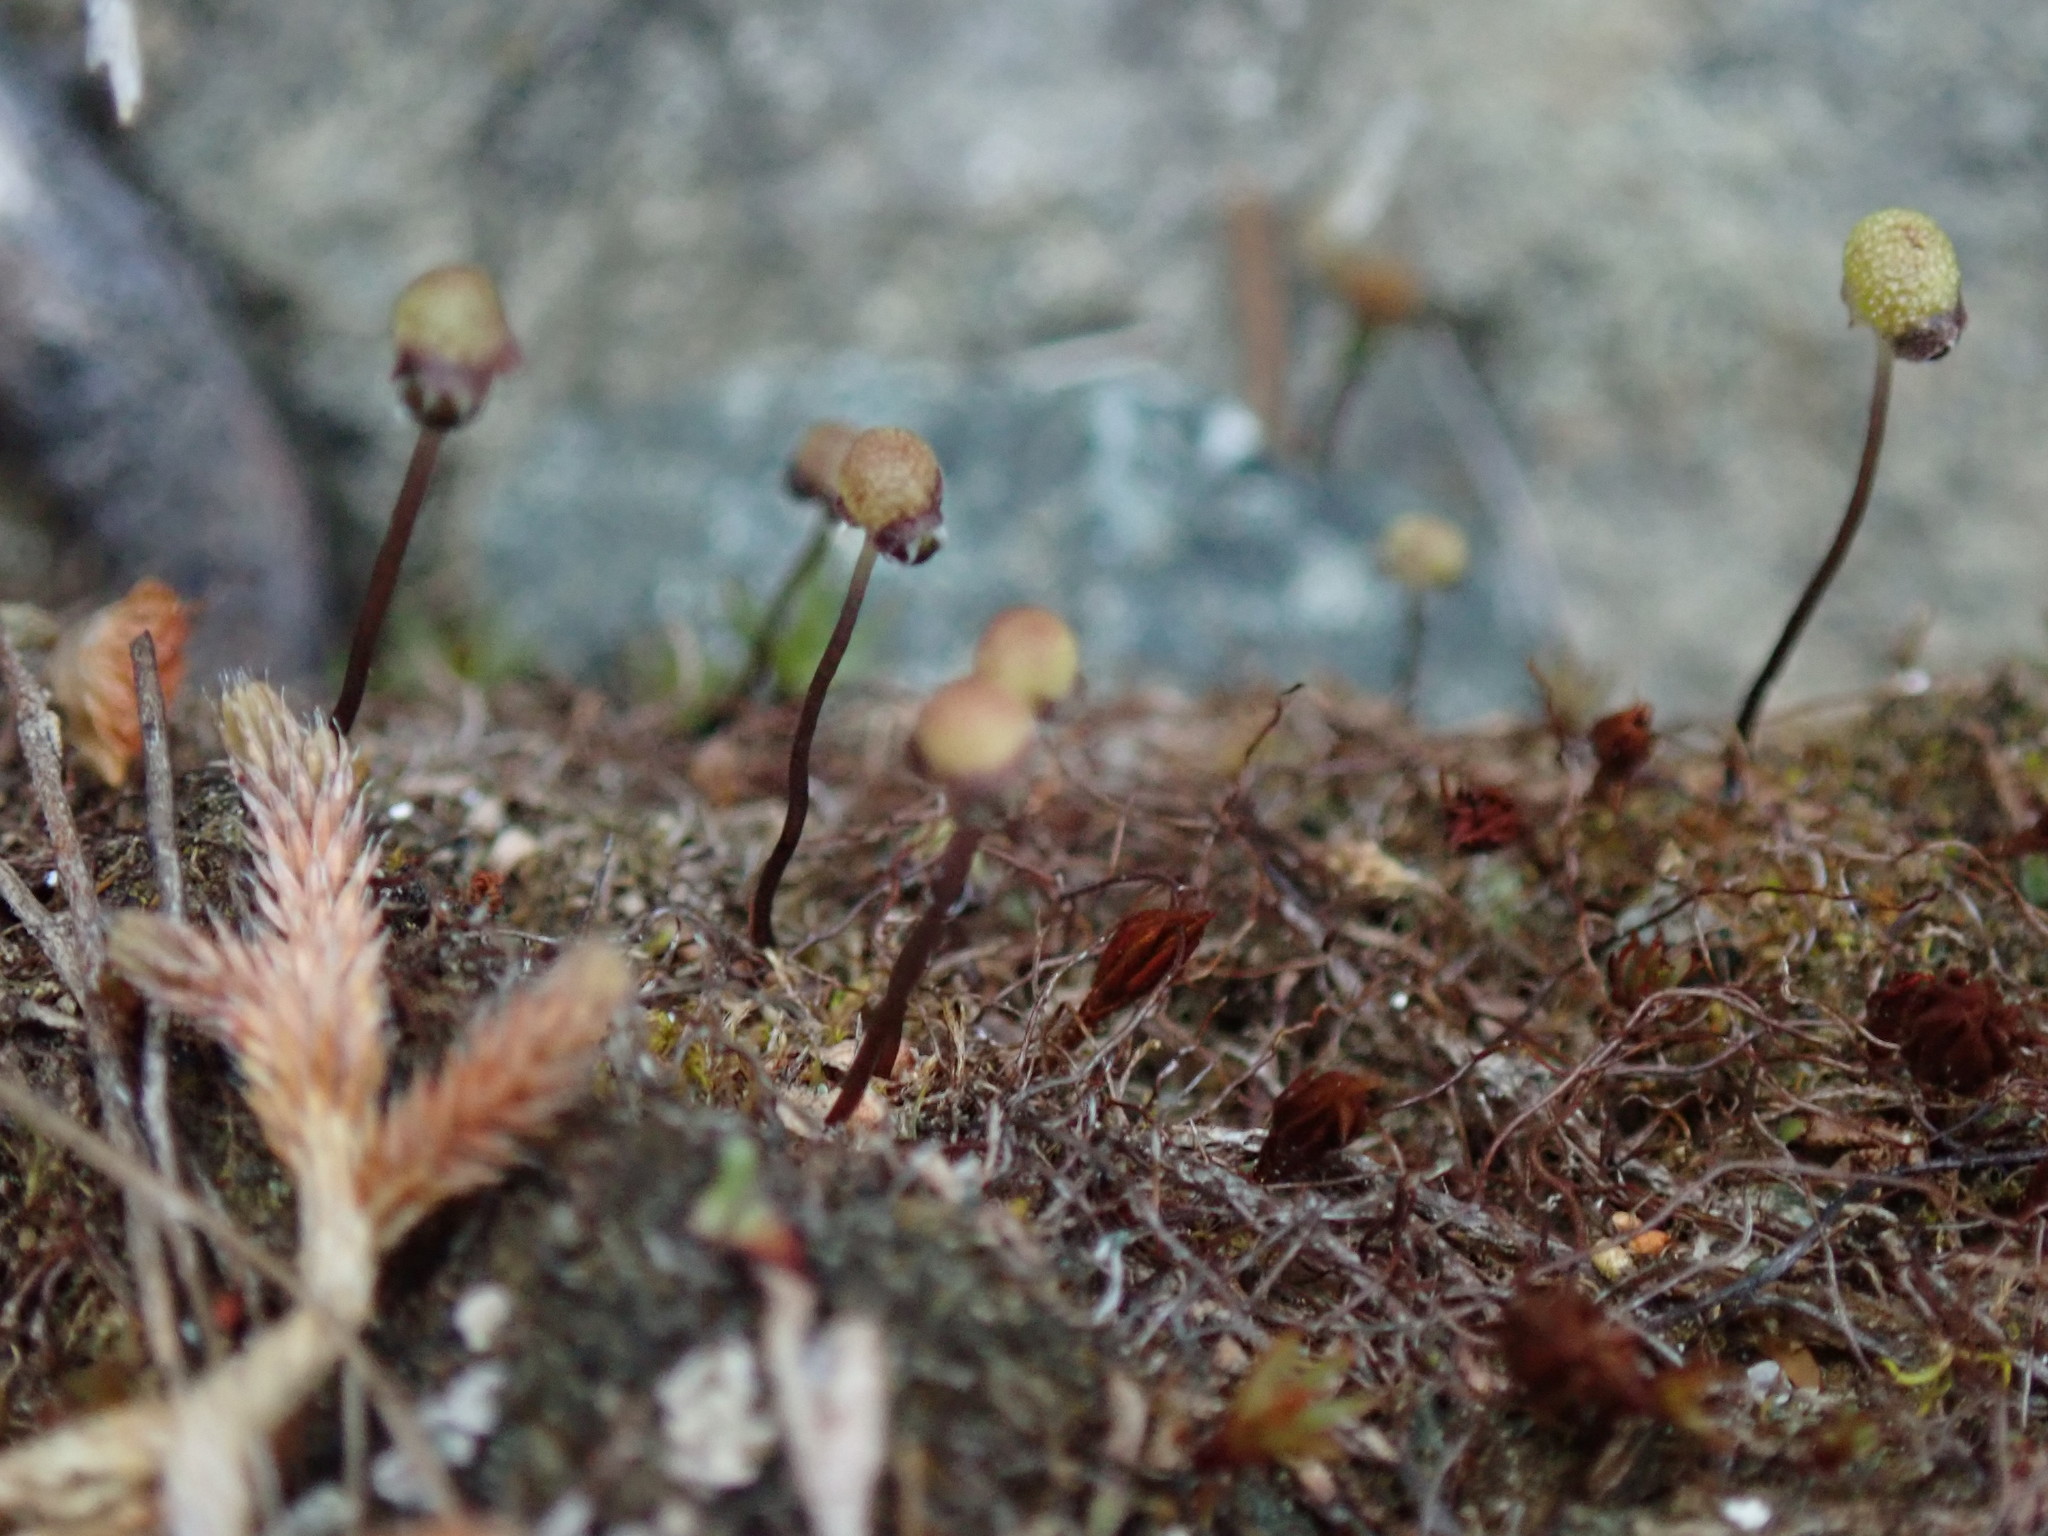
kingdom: Plantae
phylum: Marchantiophyta
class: Marchantiopsida
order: Marchantiales
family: Aytoniaceae
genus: Mannia
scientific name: Mannia gracilis
